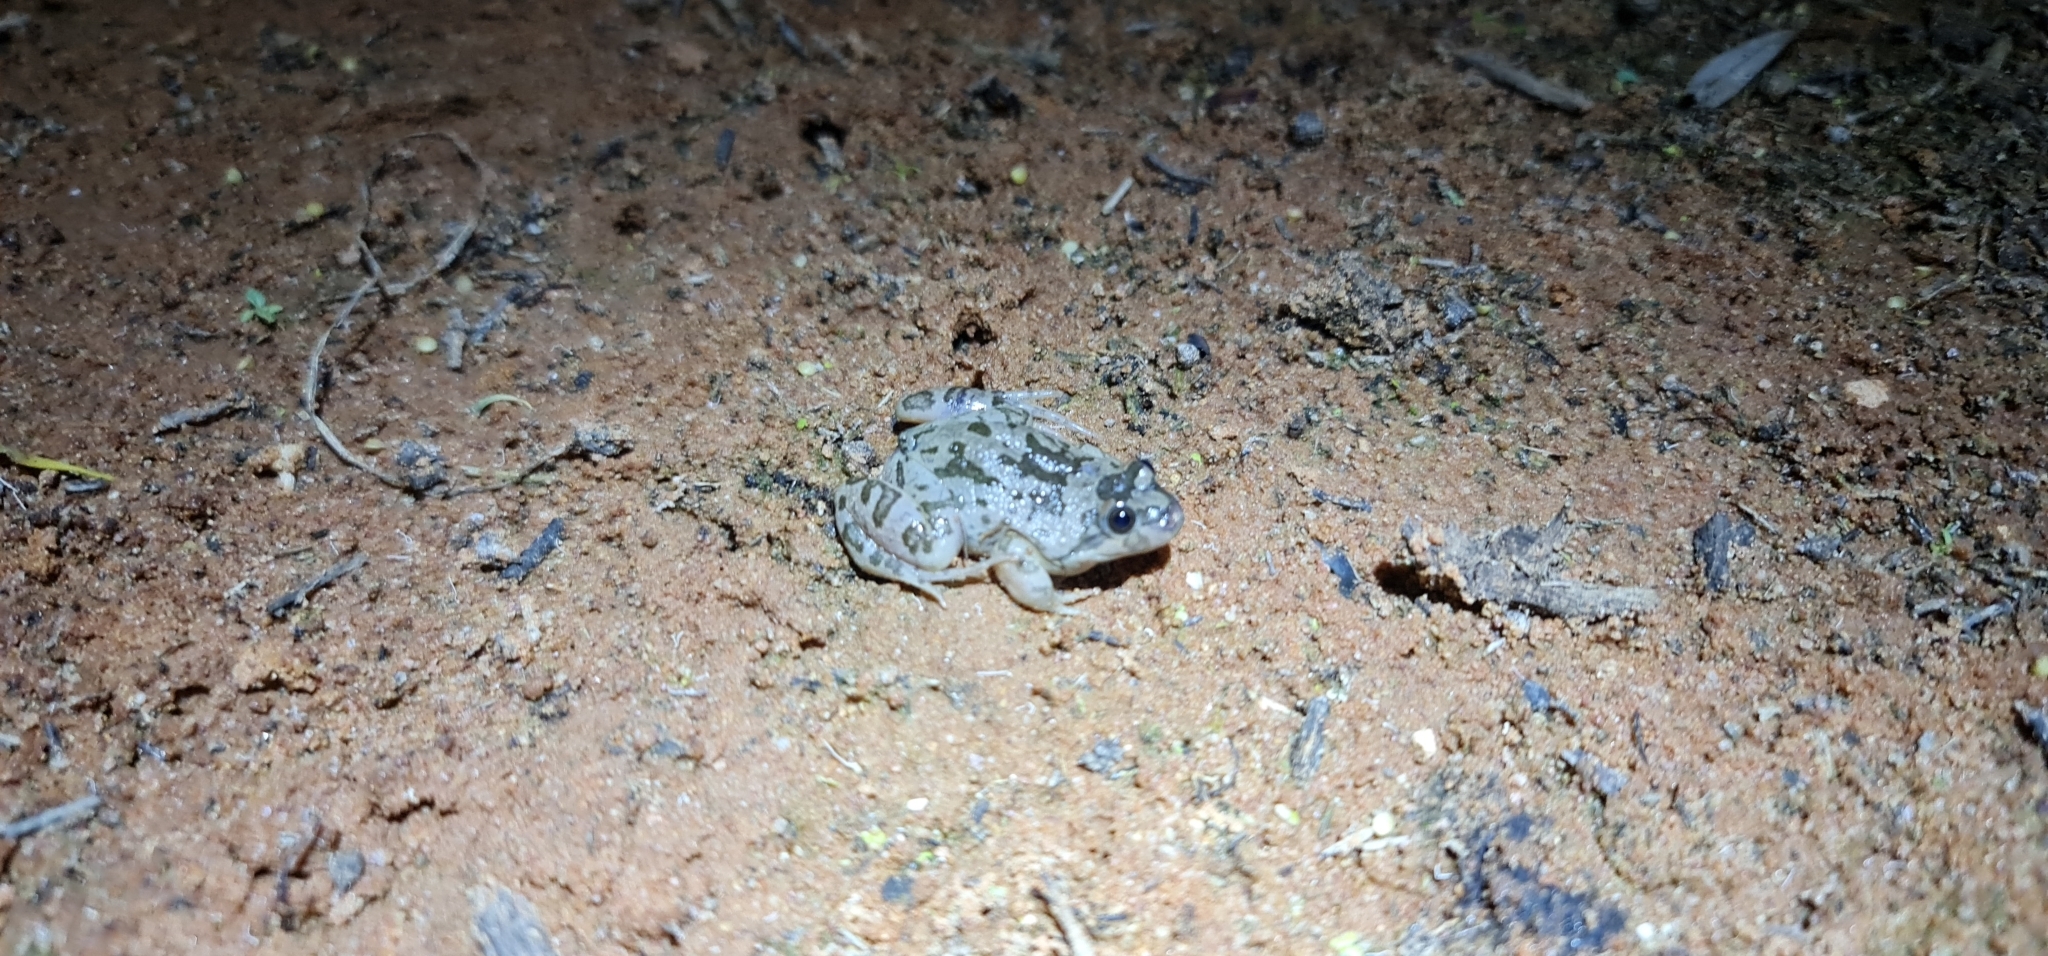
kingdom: Animalia
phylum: Chordata
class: Amphibia
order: Anura
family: Limnodynastidae
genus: Limnodynastes
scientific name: Limnodynastes fletcheri
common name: Barking frog
